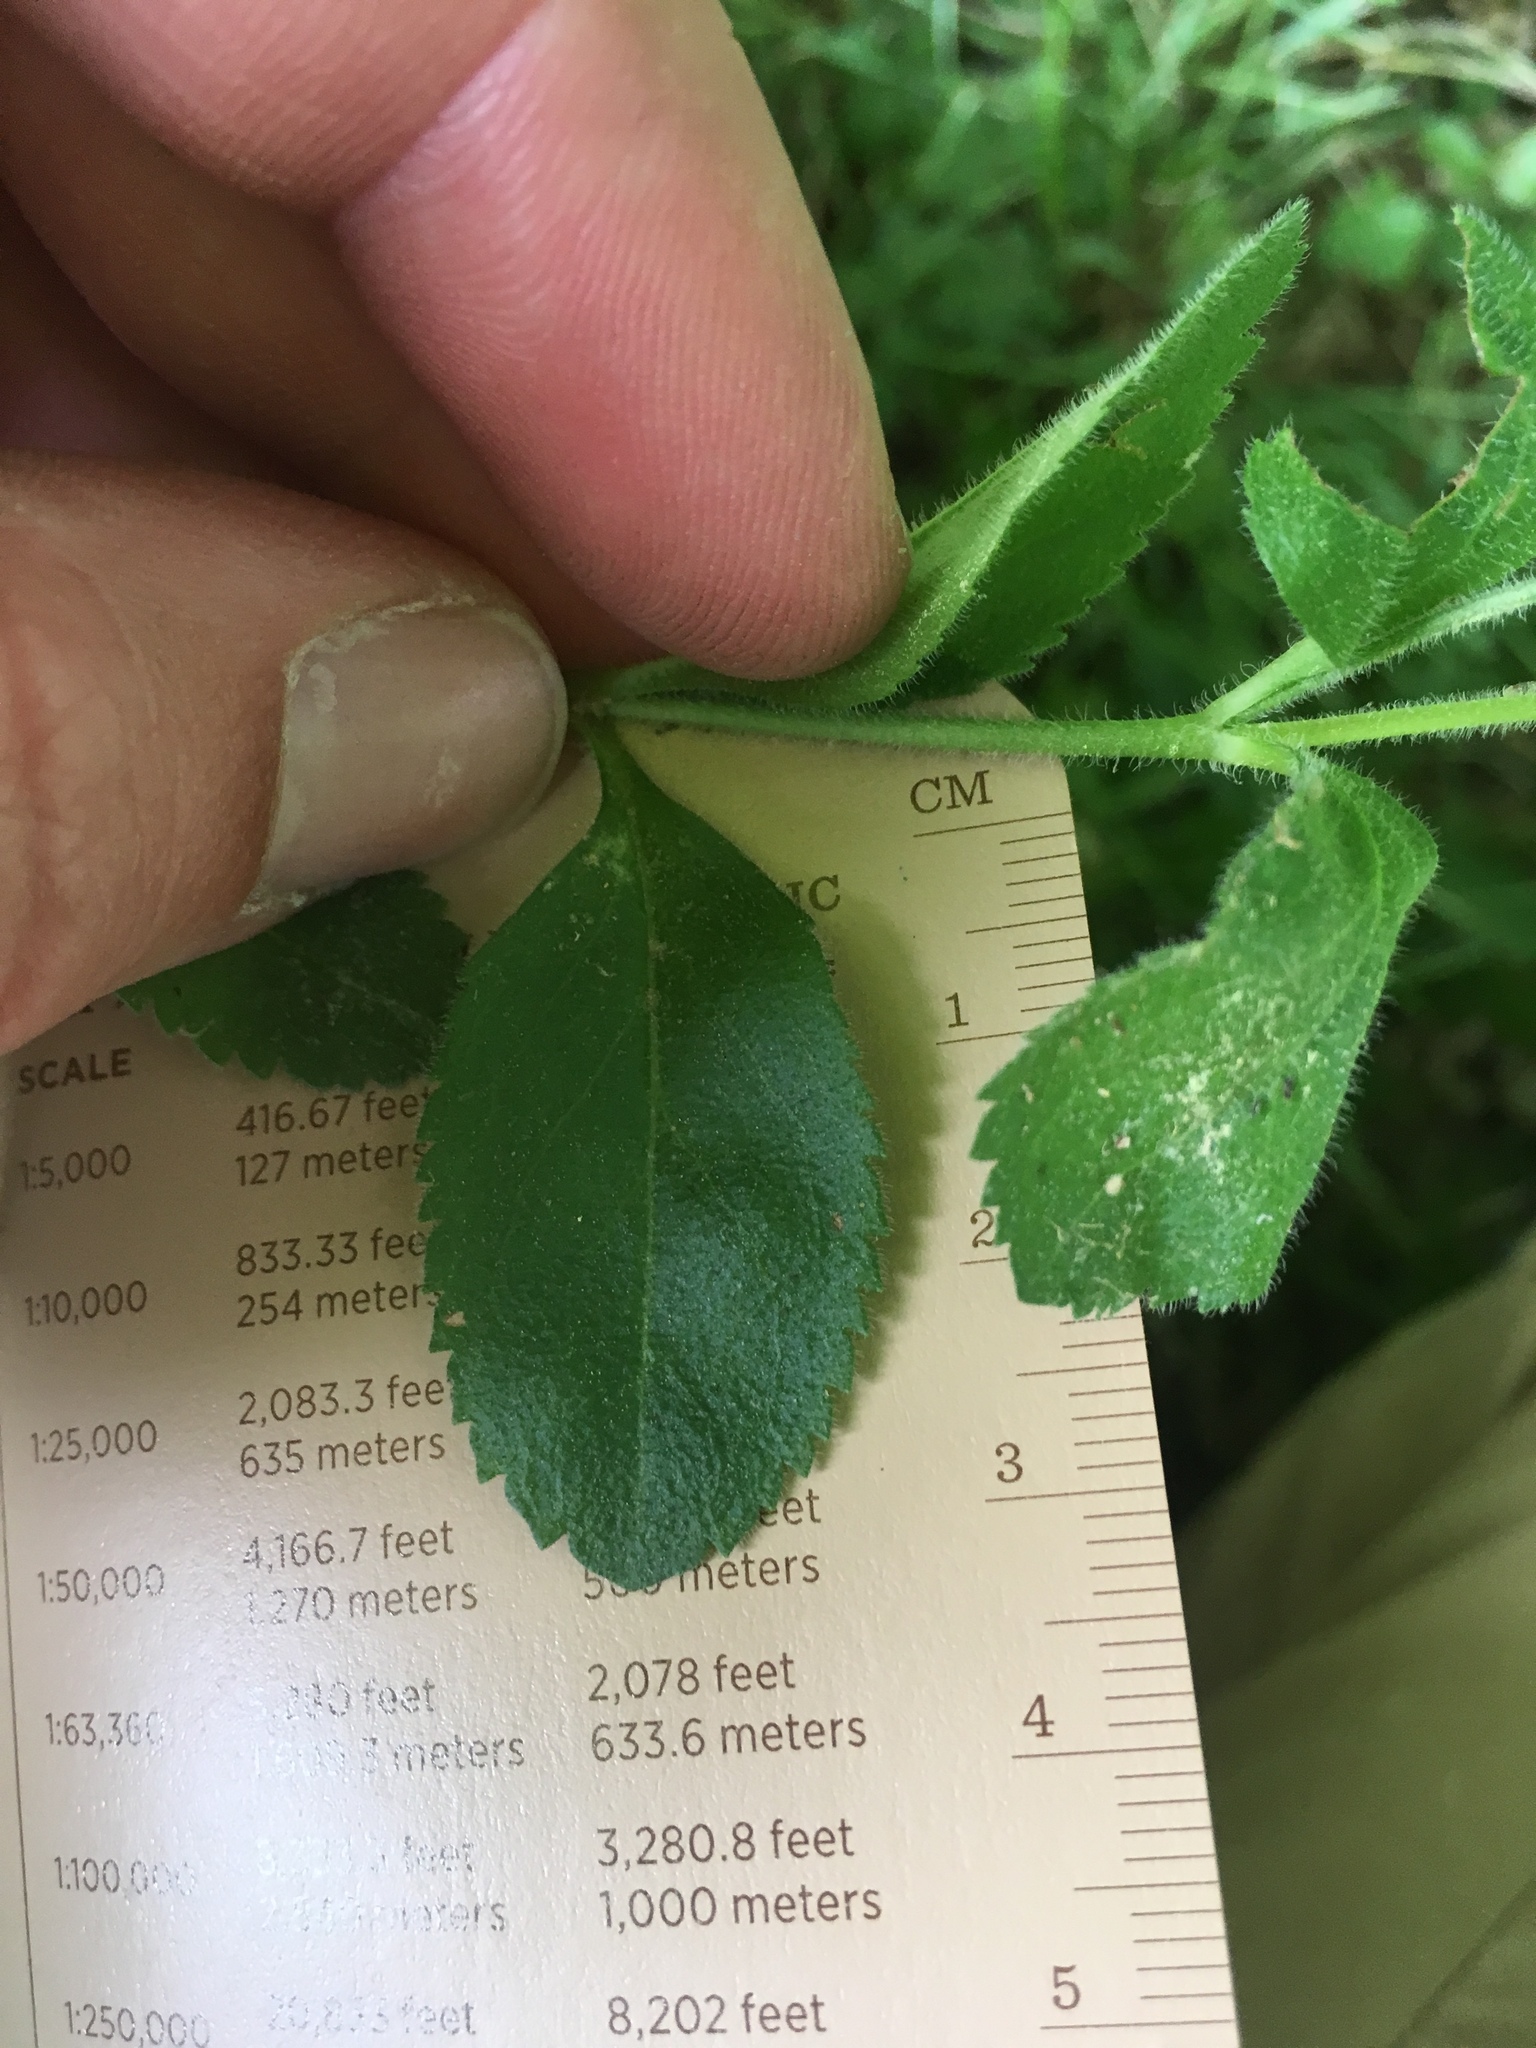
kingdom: Plantae
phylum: Tracheophyta
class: Magnoliopsida
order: Lamiales
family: Plantaginaceae
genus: Veronica
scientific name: Veronica officinalis
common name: Common speedwell
